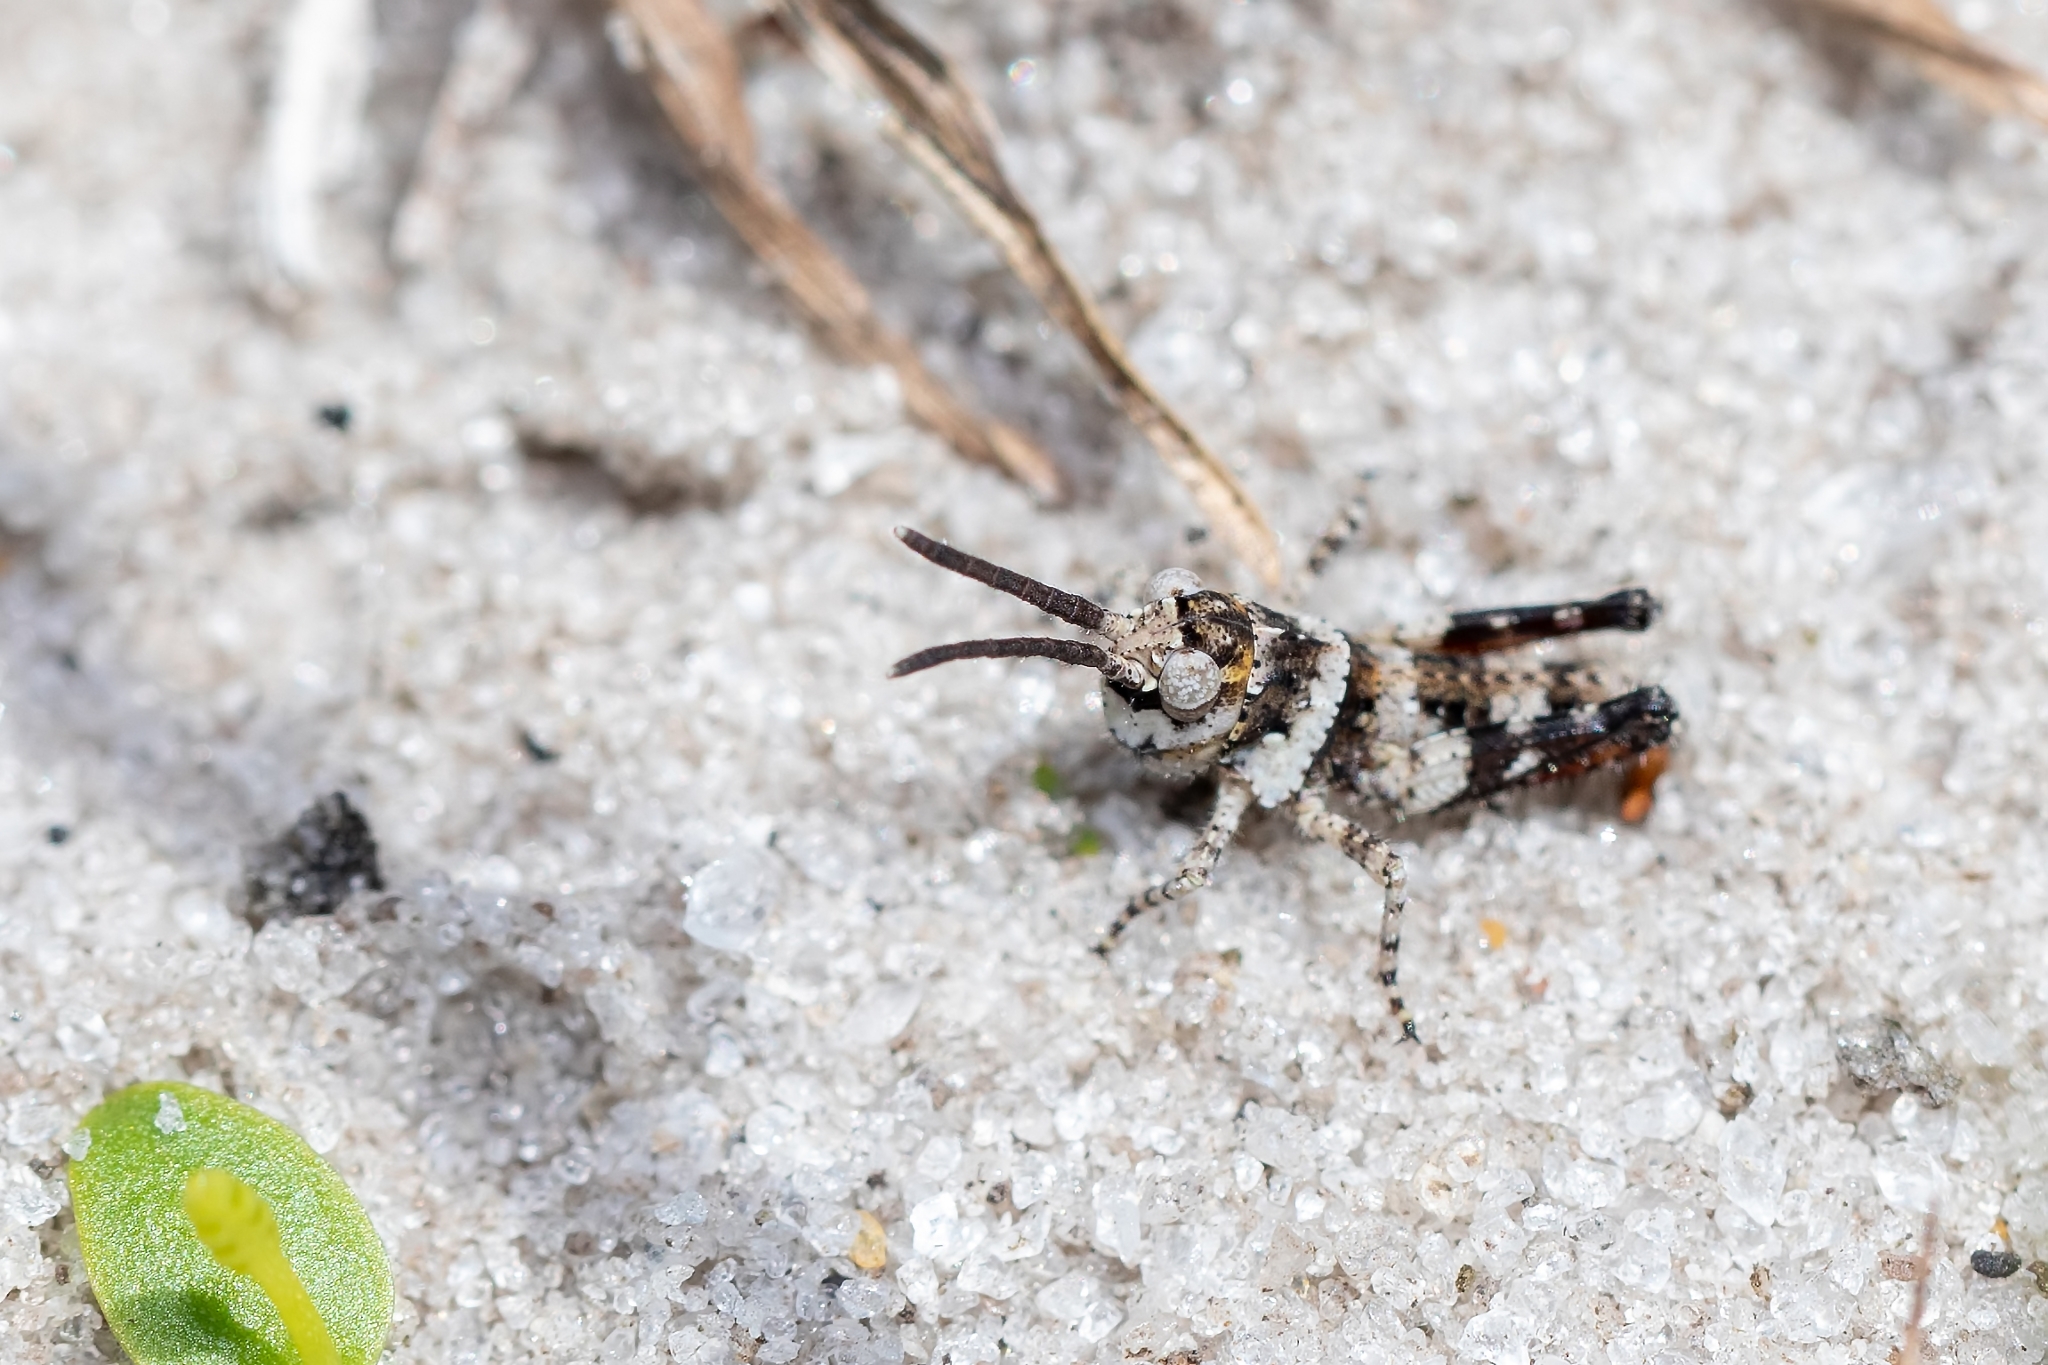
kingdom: Animalia
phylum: Arthropoda
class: Insecta
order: Orthoptera
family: Acrididae
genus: Psinidia
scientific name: Psinidia fenestralis
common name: Long-horned locust
